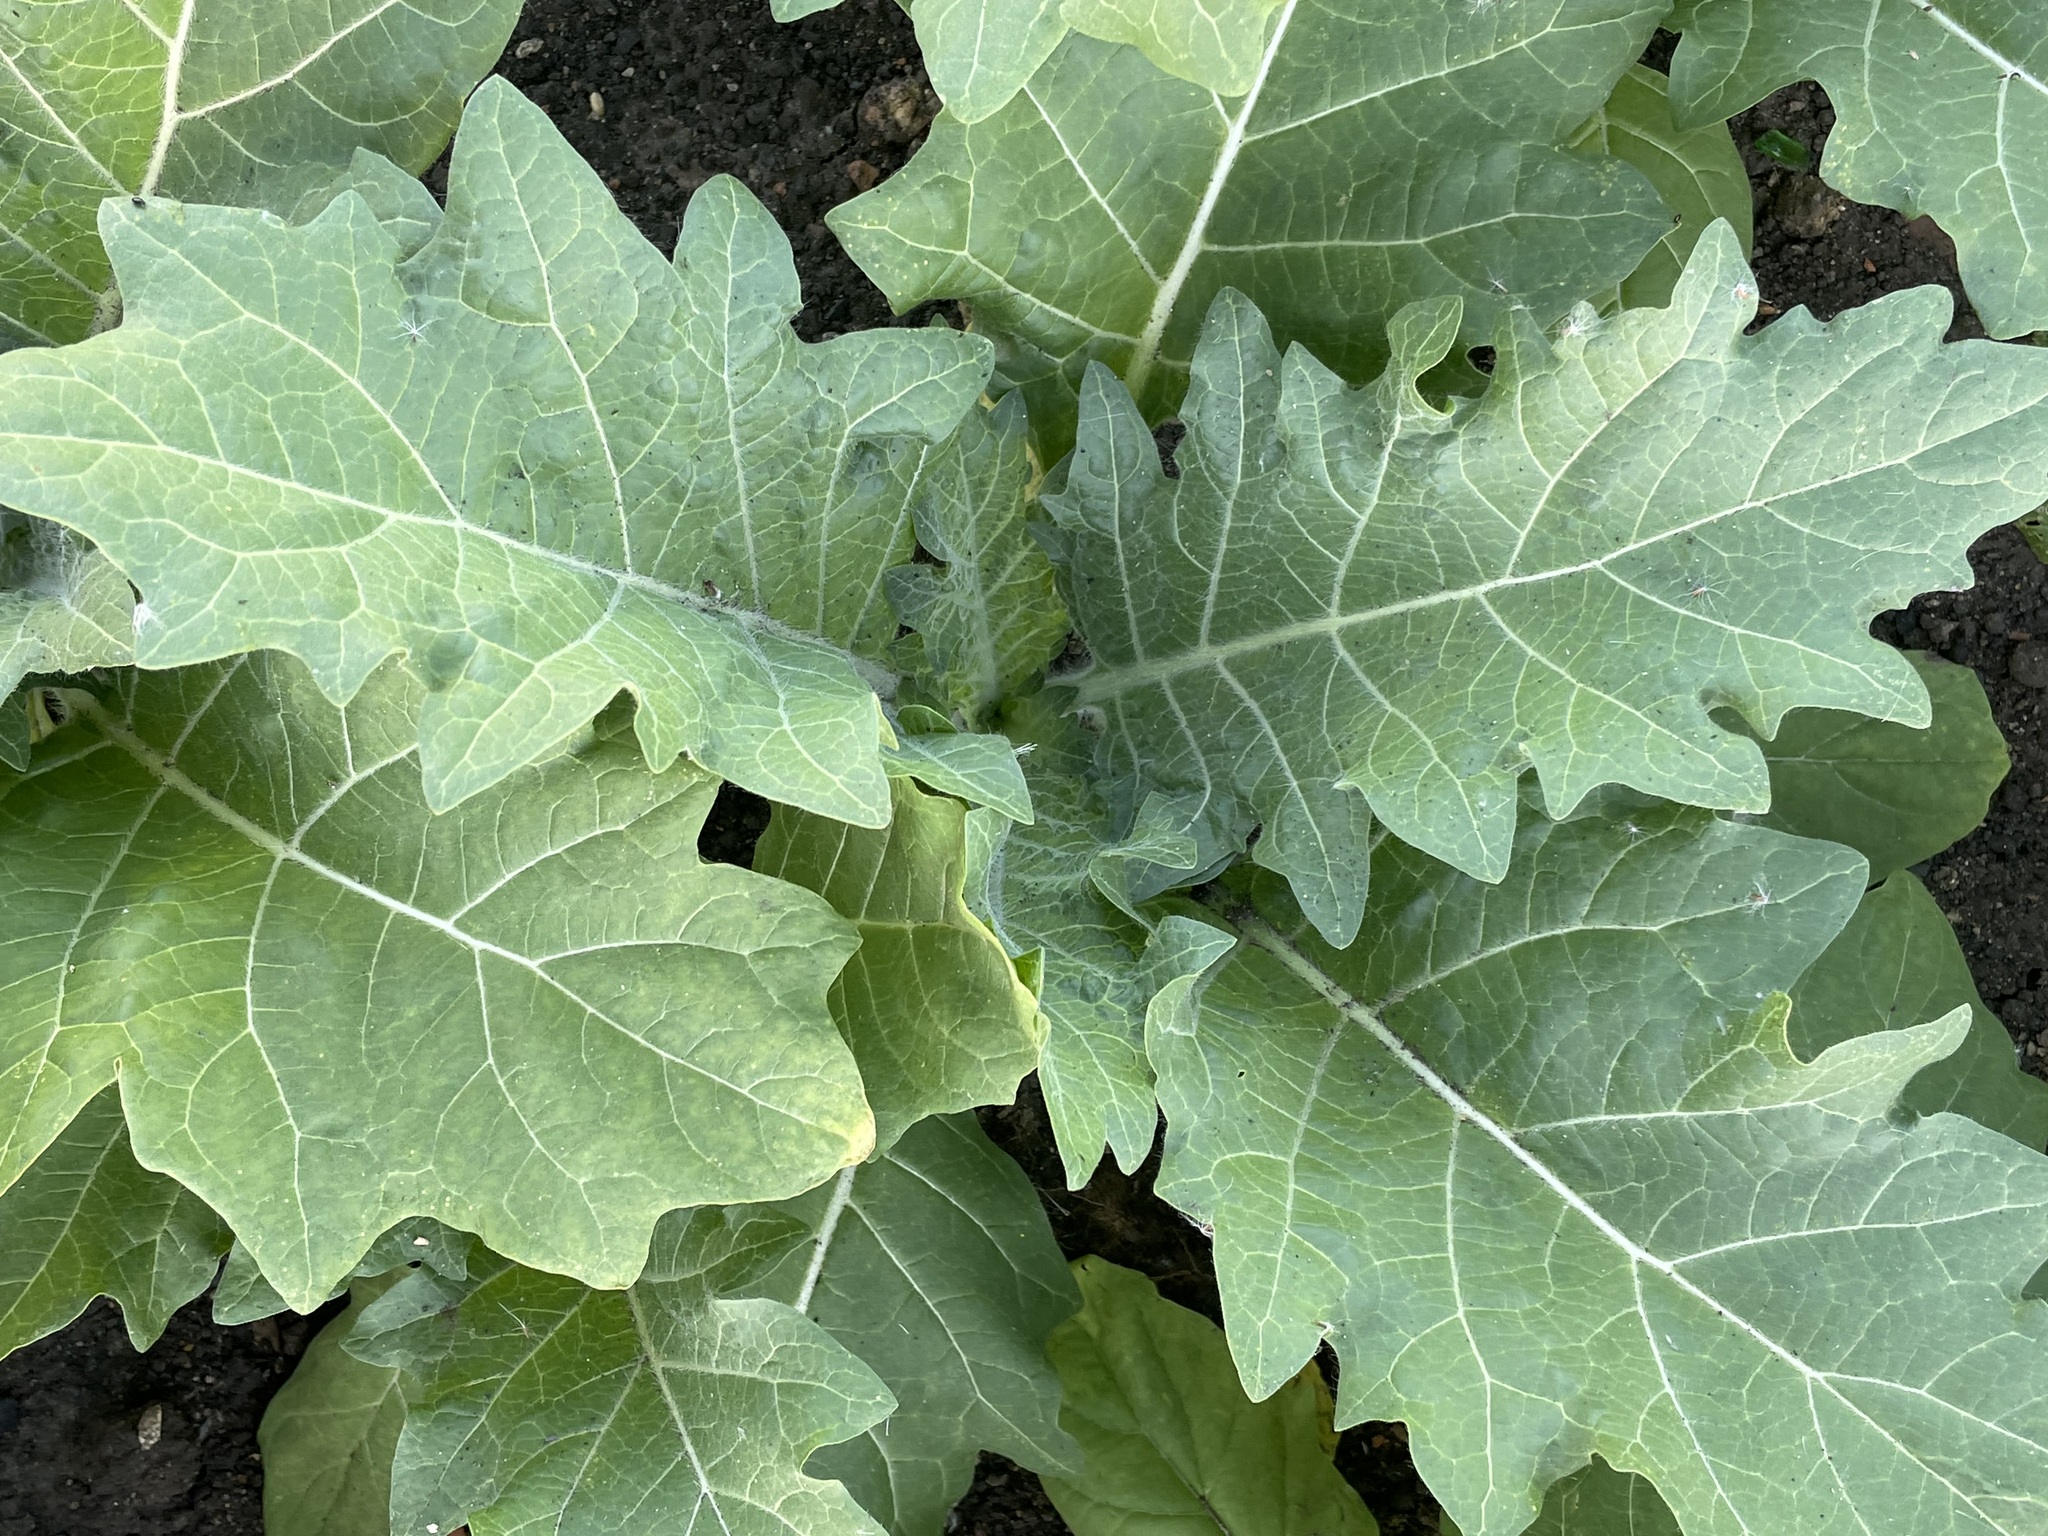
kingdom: Plantae
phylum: Tracheophyta
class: Magnoliopsida
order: Solanales
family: Solanaceae
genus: Hyoscyamus
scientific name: Hyoscyamus niger
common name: Henbane
